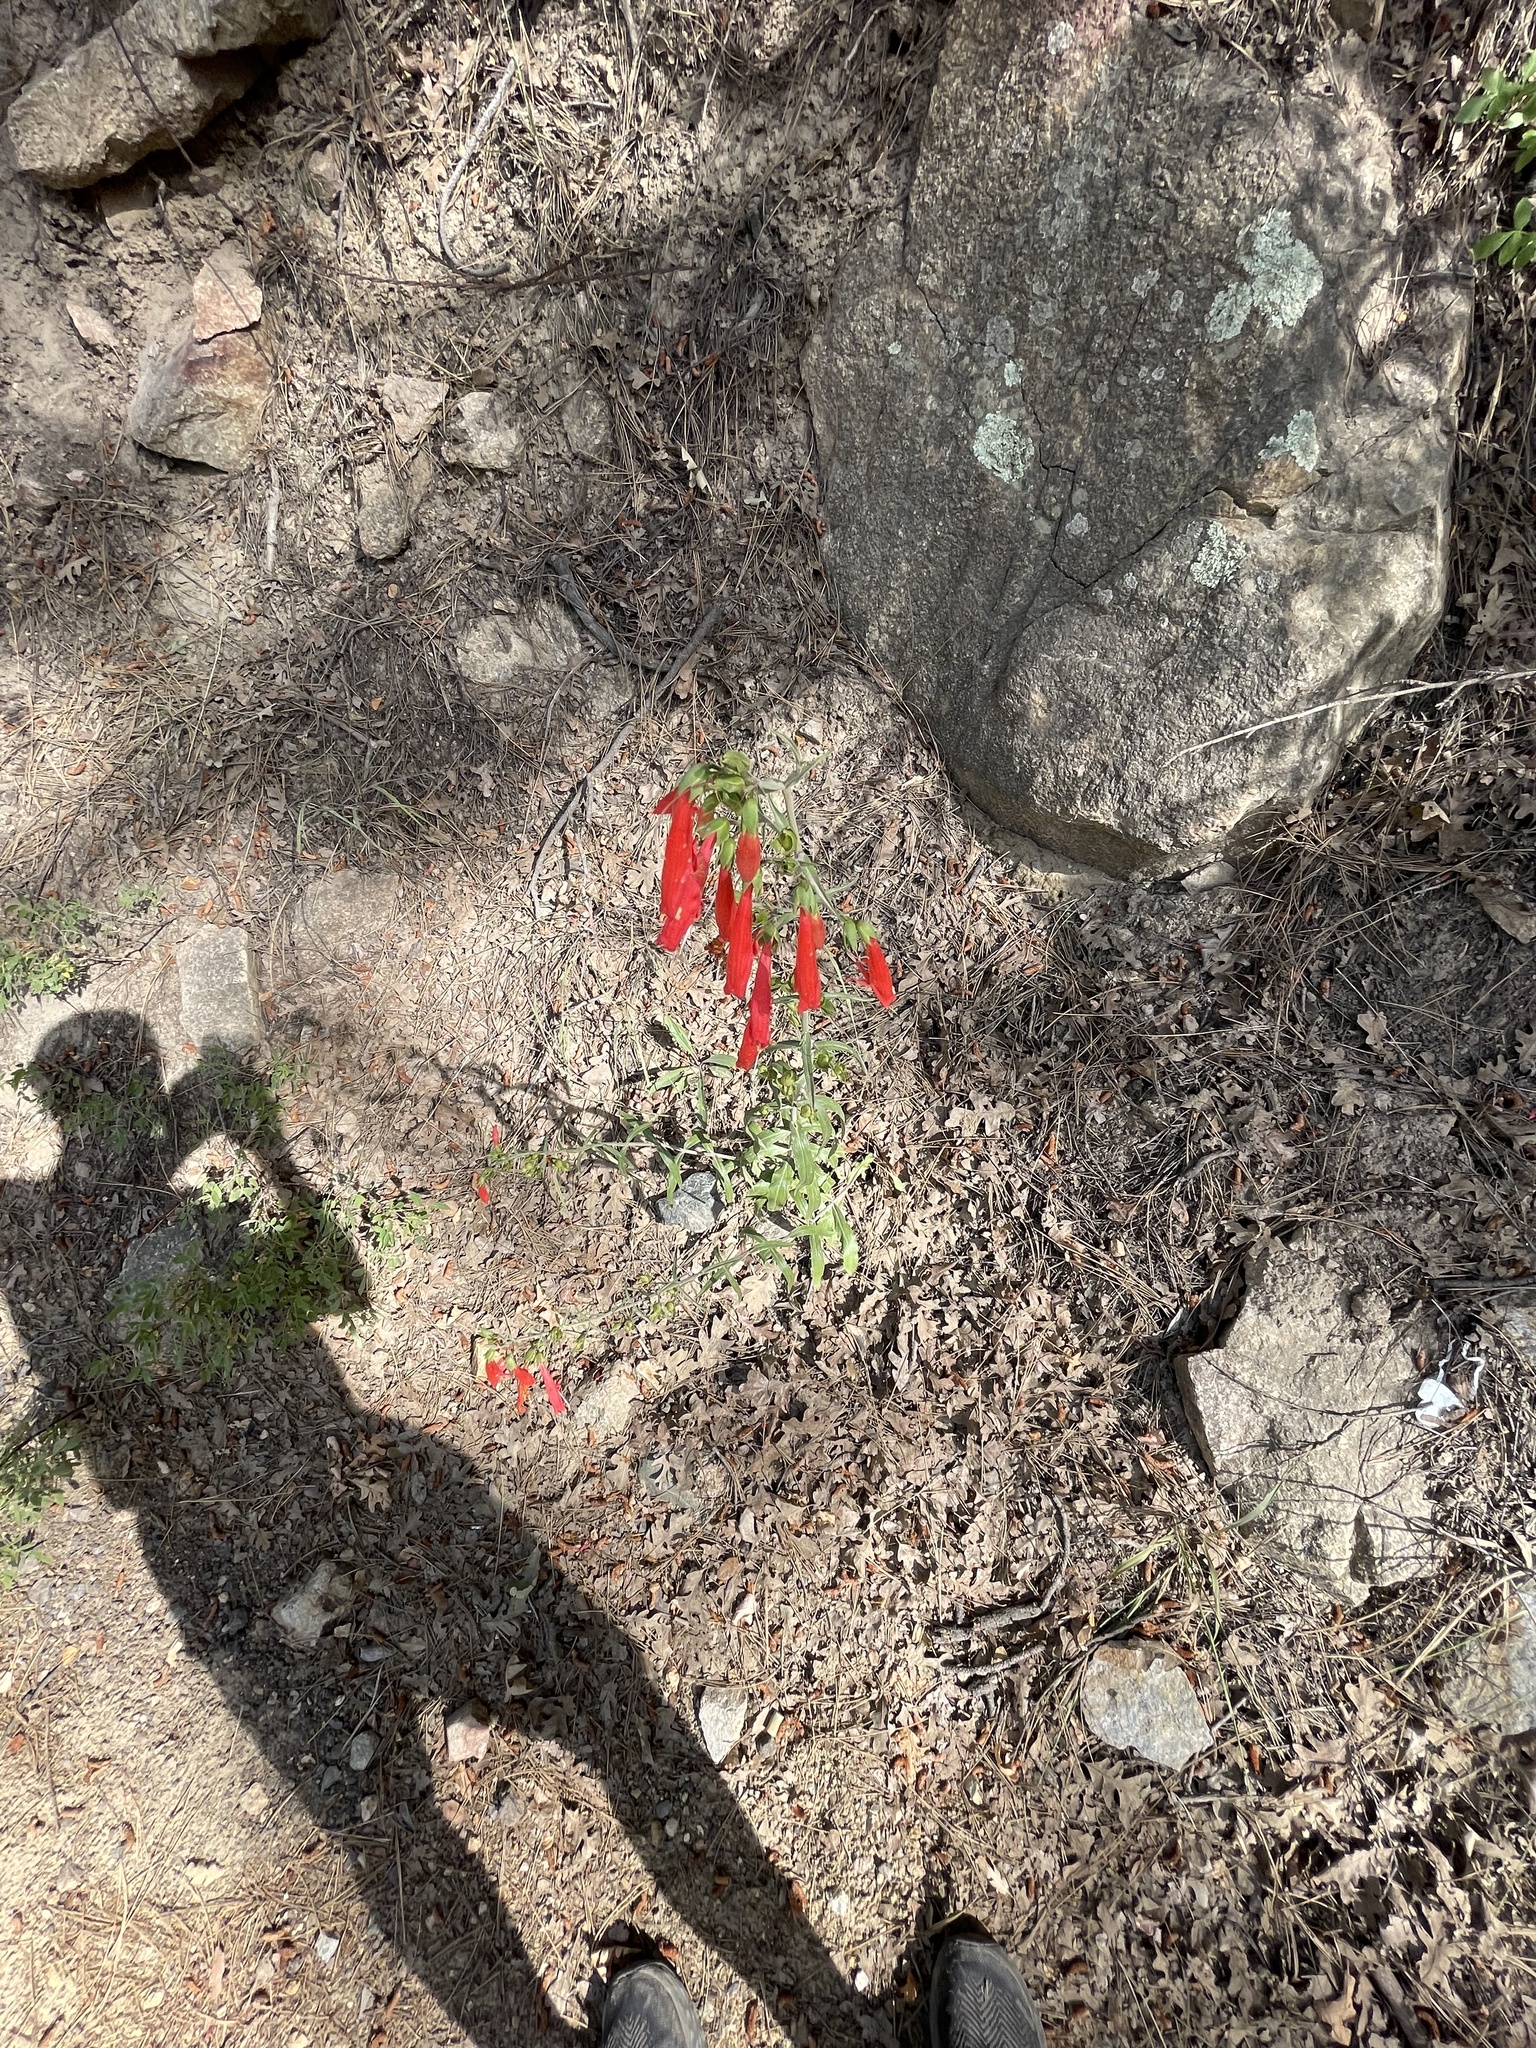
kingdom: Plantae
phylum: Tracheophyta
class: Magnoliopsida
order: Lamiales
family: Plantaginaceae
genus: Penstemon
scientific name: Penstemon barbatus
